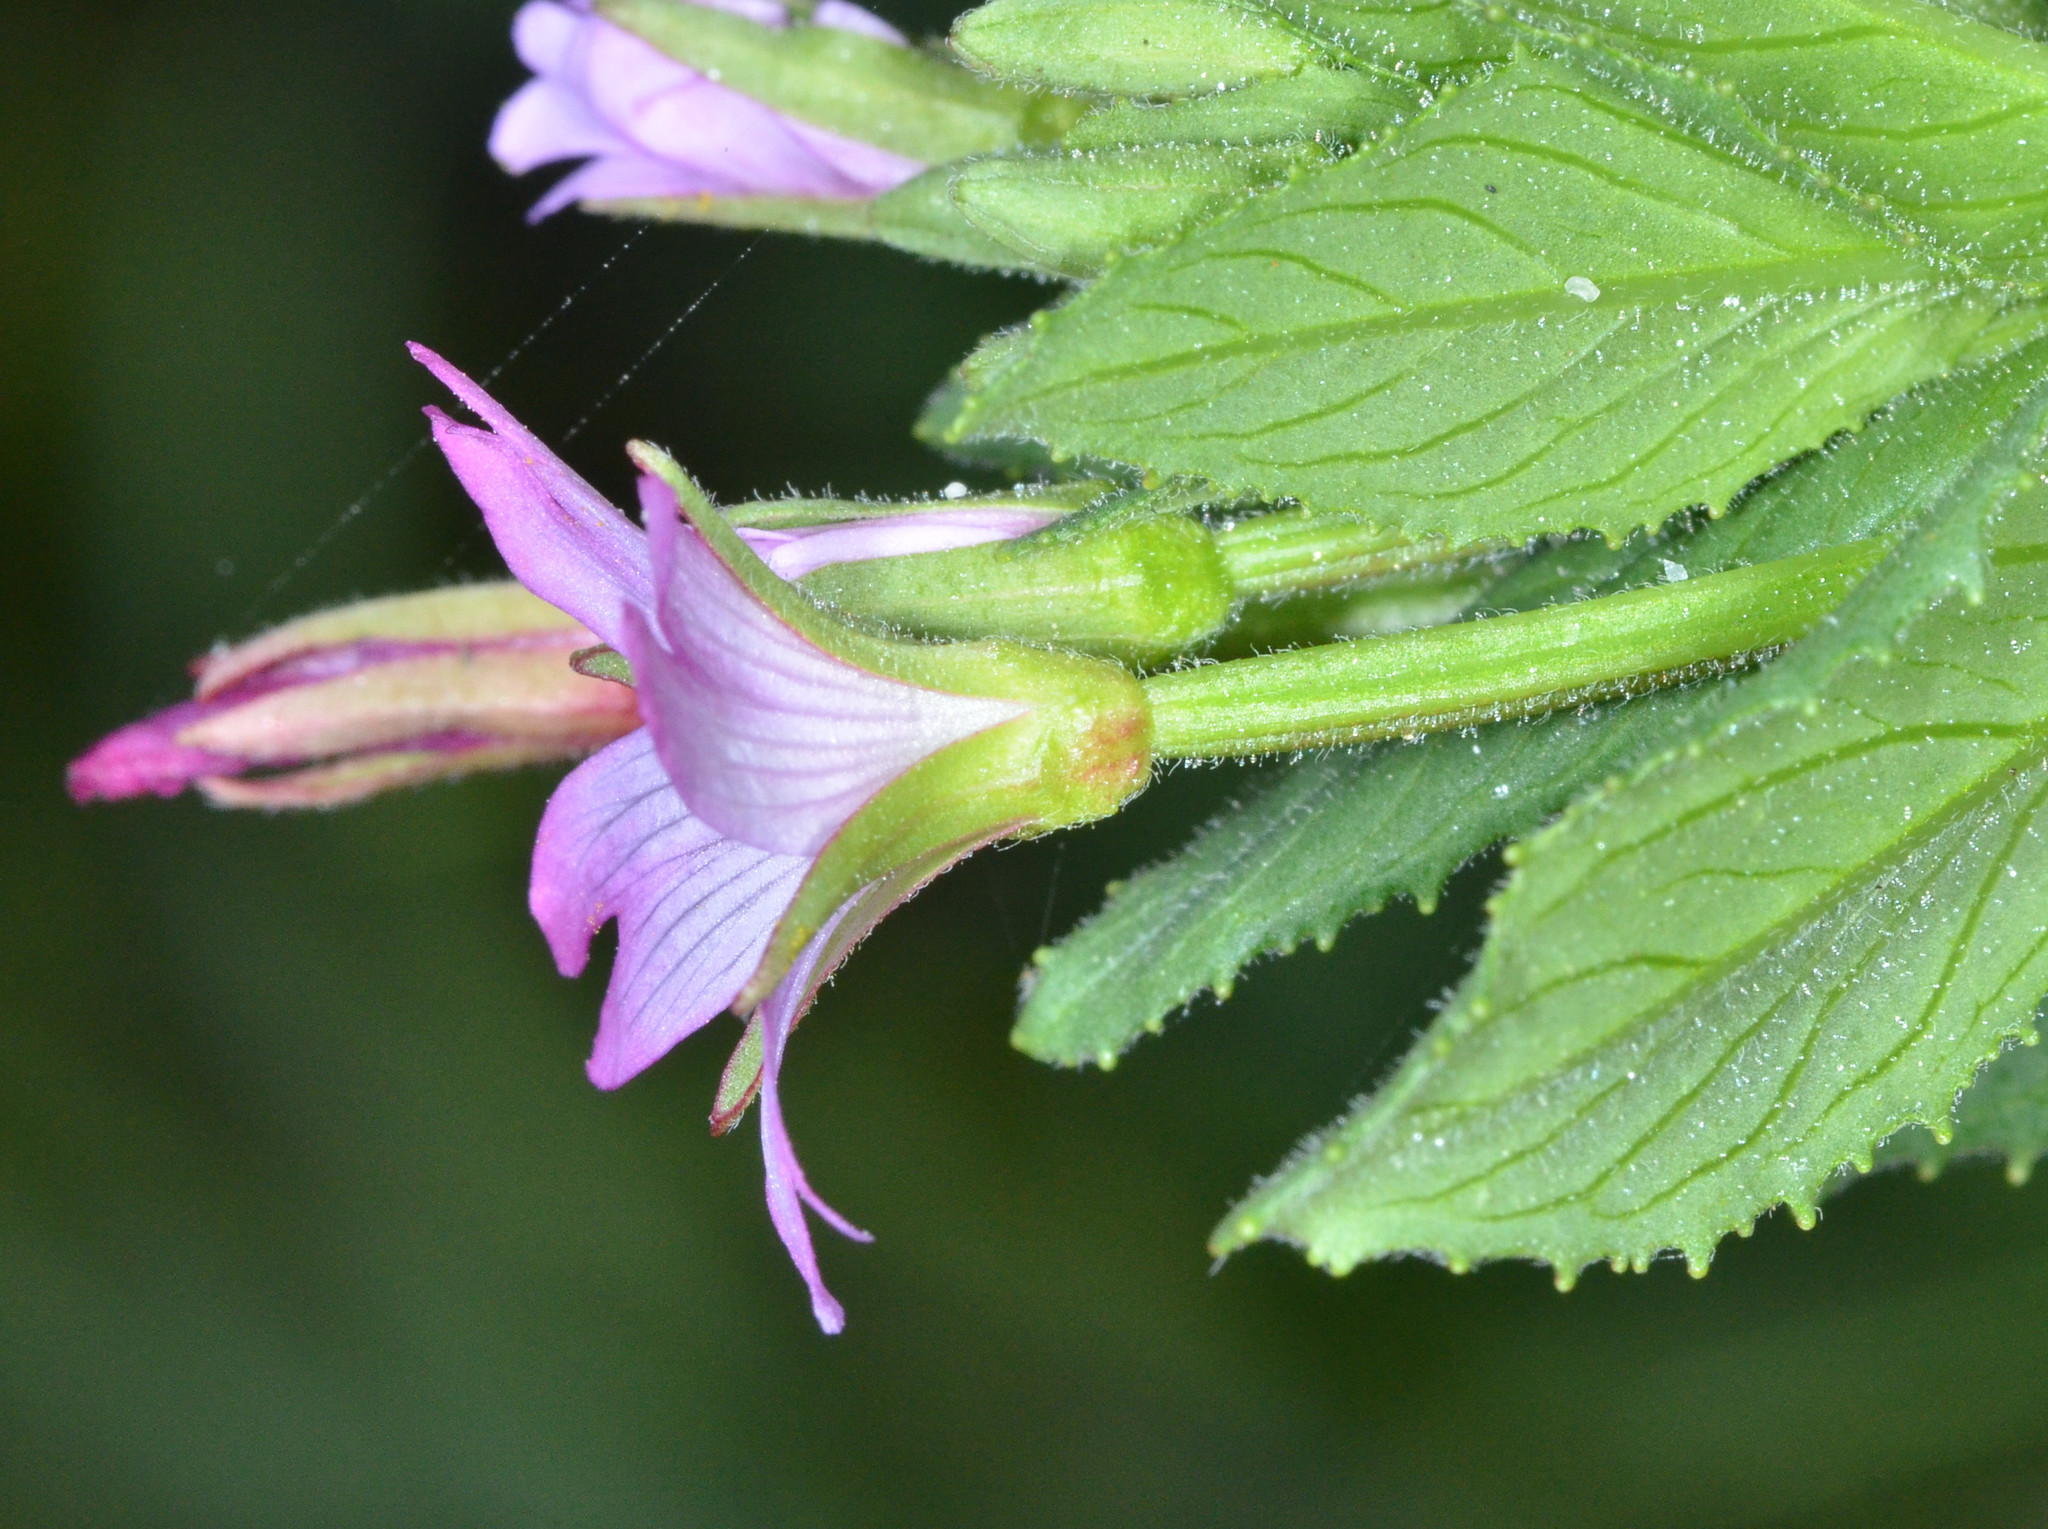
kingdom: Plantae
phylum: Tracheophyta
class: Magnoliopsida
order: Myrtales
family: Onagraceae
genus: Epilobium
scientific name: Epilobium ciliatum
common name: American willowherb
